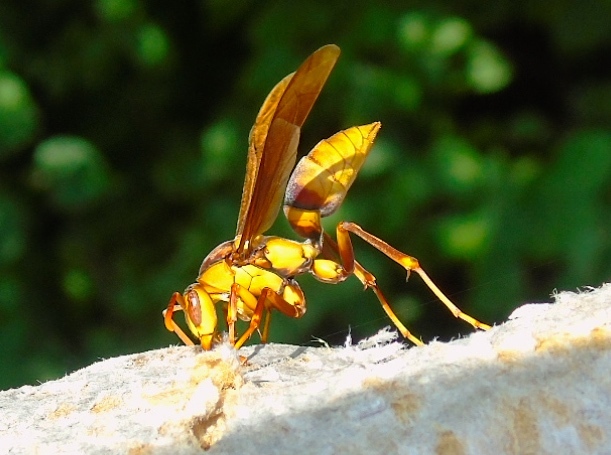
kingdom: Animalia
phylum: Arthropoda
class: Insecta
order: Hymenoptera
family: Eumenidae
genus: Polistes
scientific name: Polistes major
